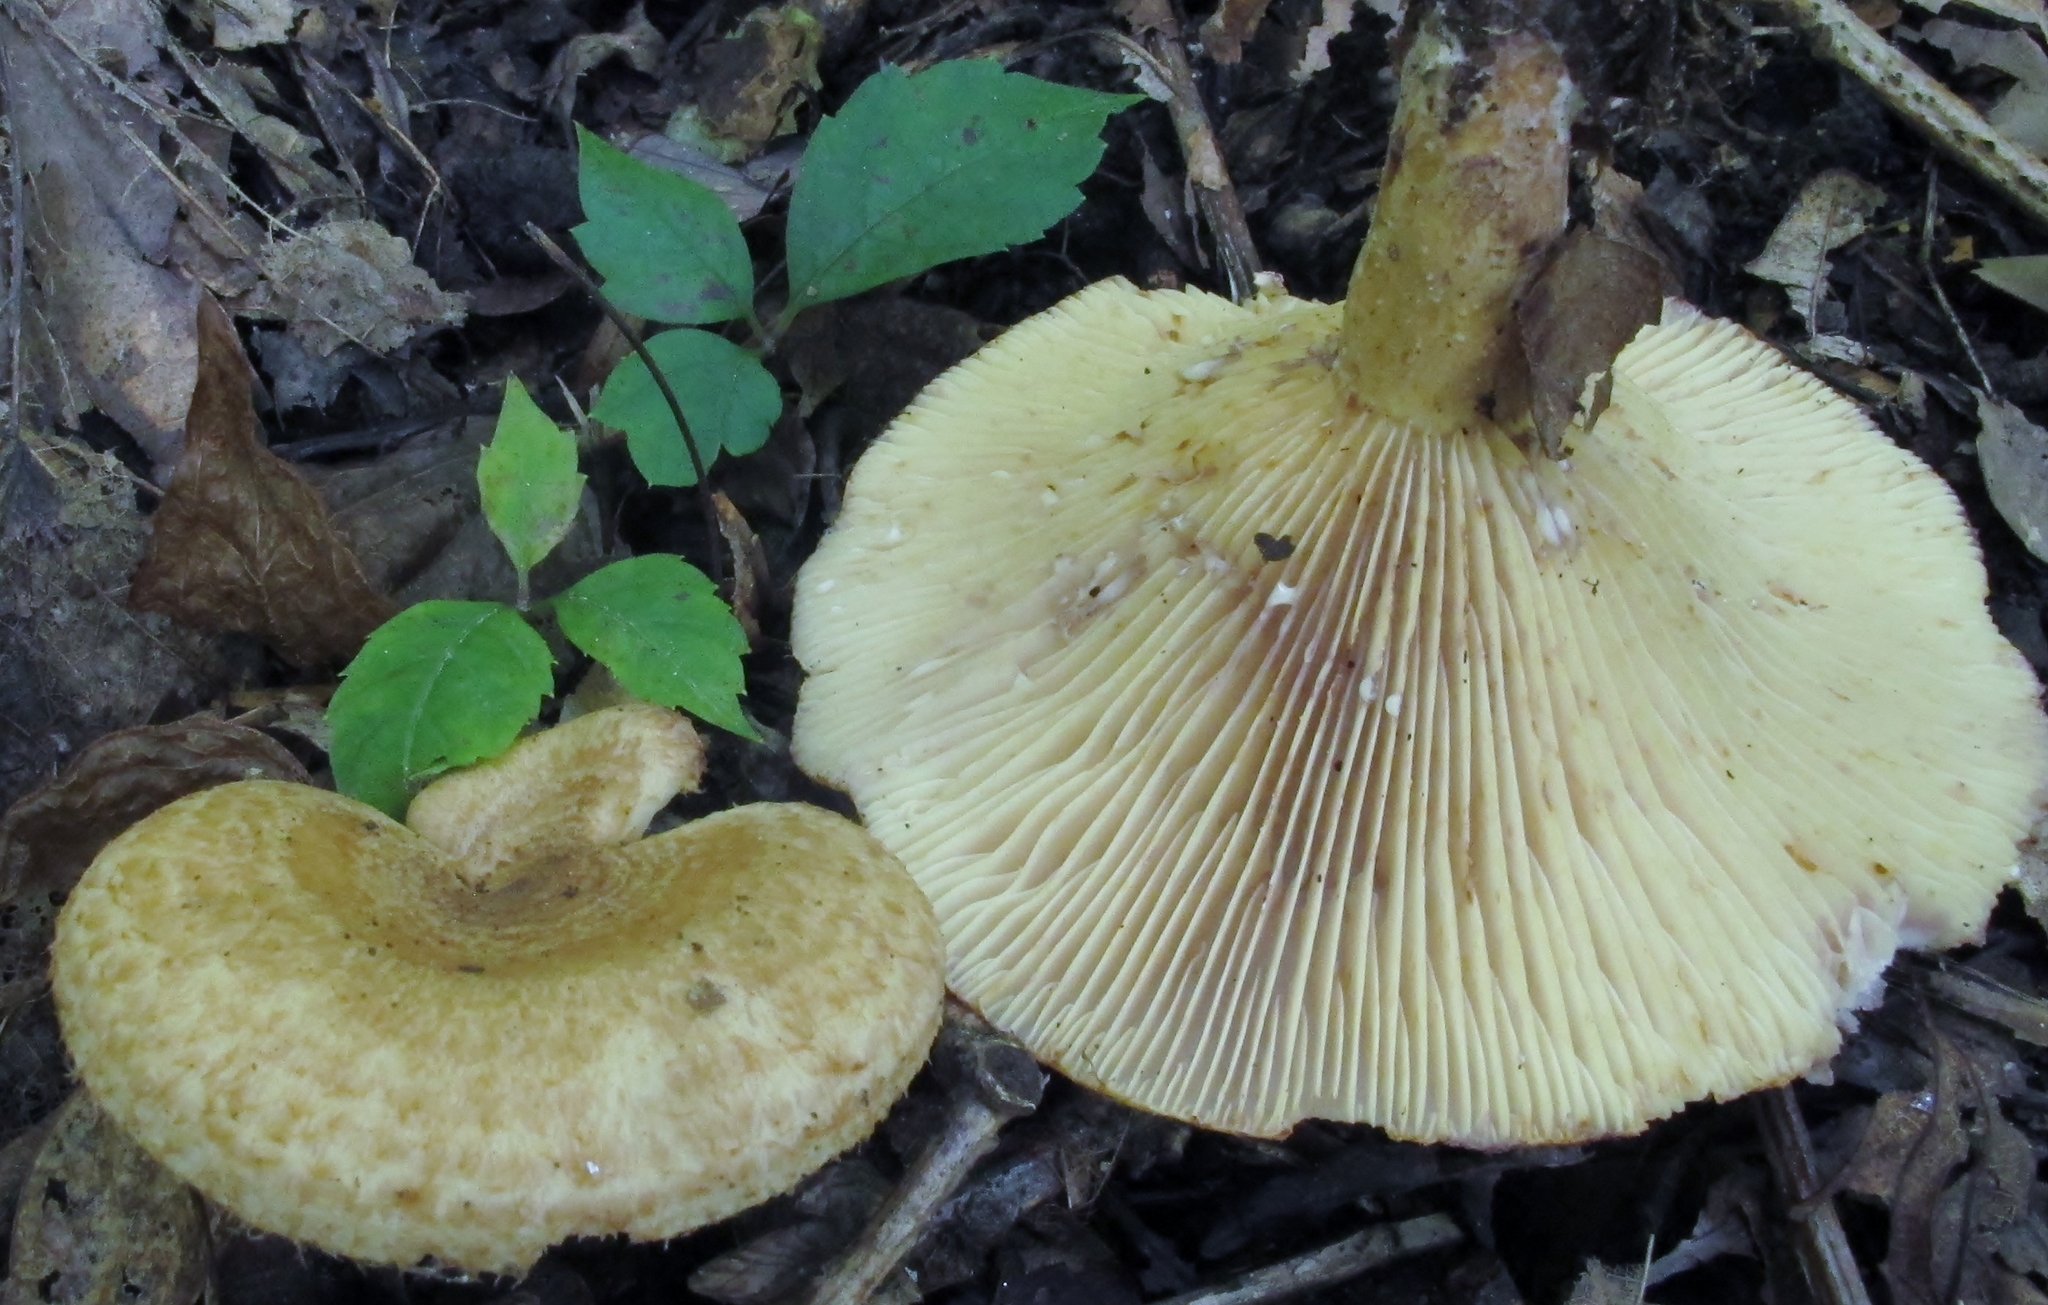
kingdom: Fungi
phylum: Basidiomycota
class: Agaricomycetes
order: Russulales
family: Russulaceae
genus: Lactarius
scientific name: Lactarius romagnesii
